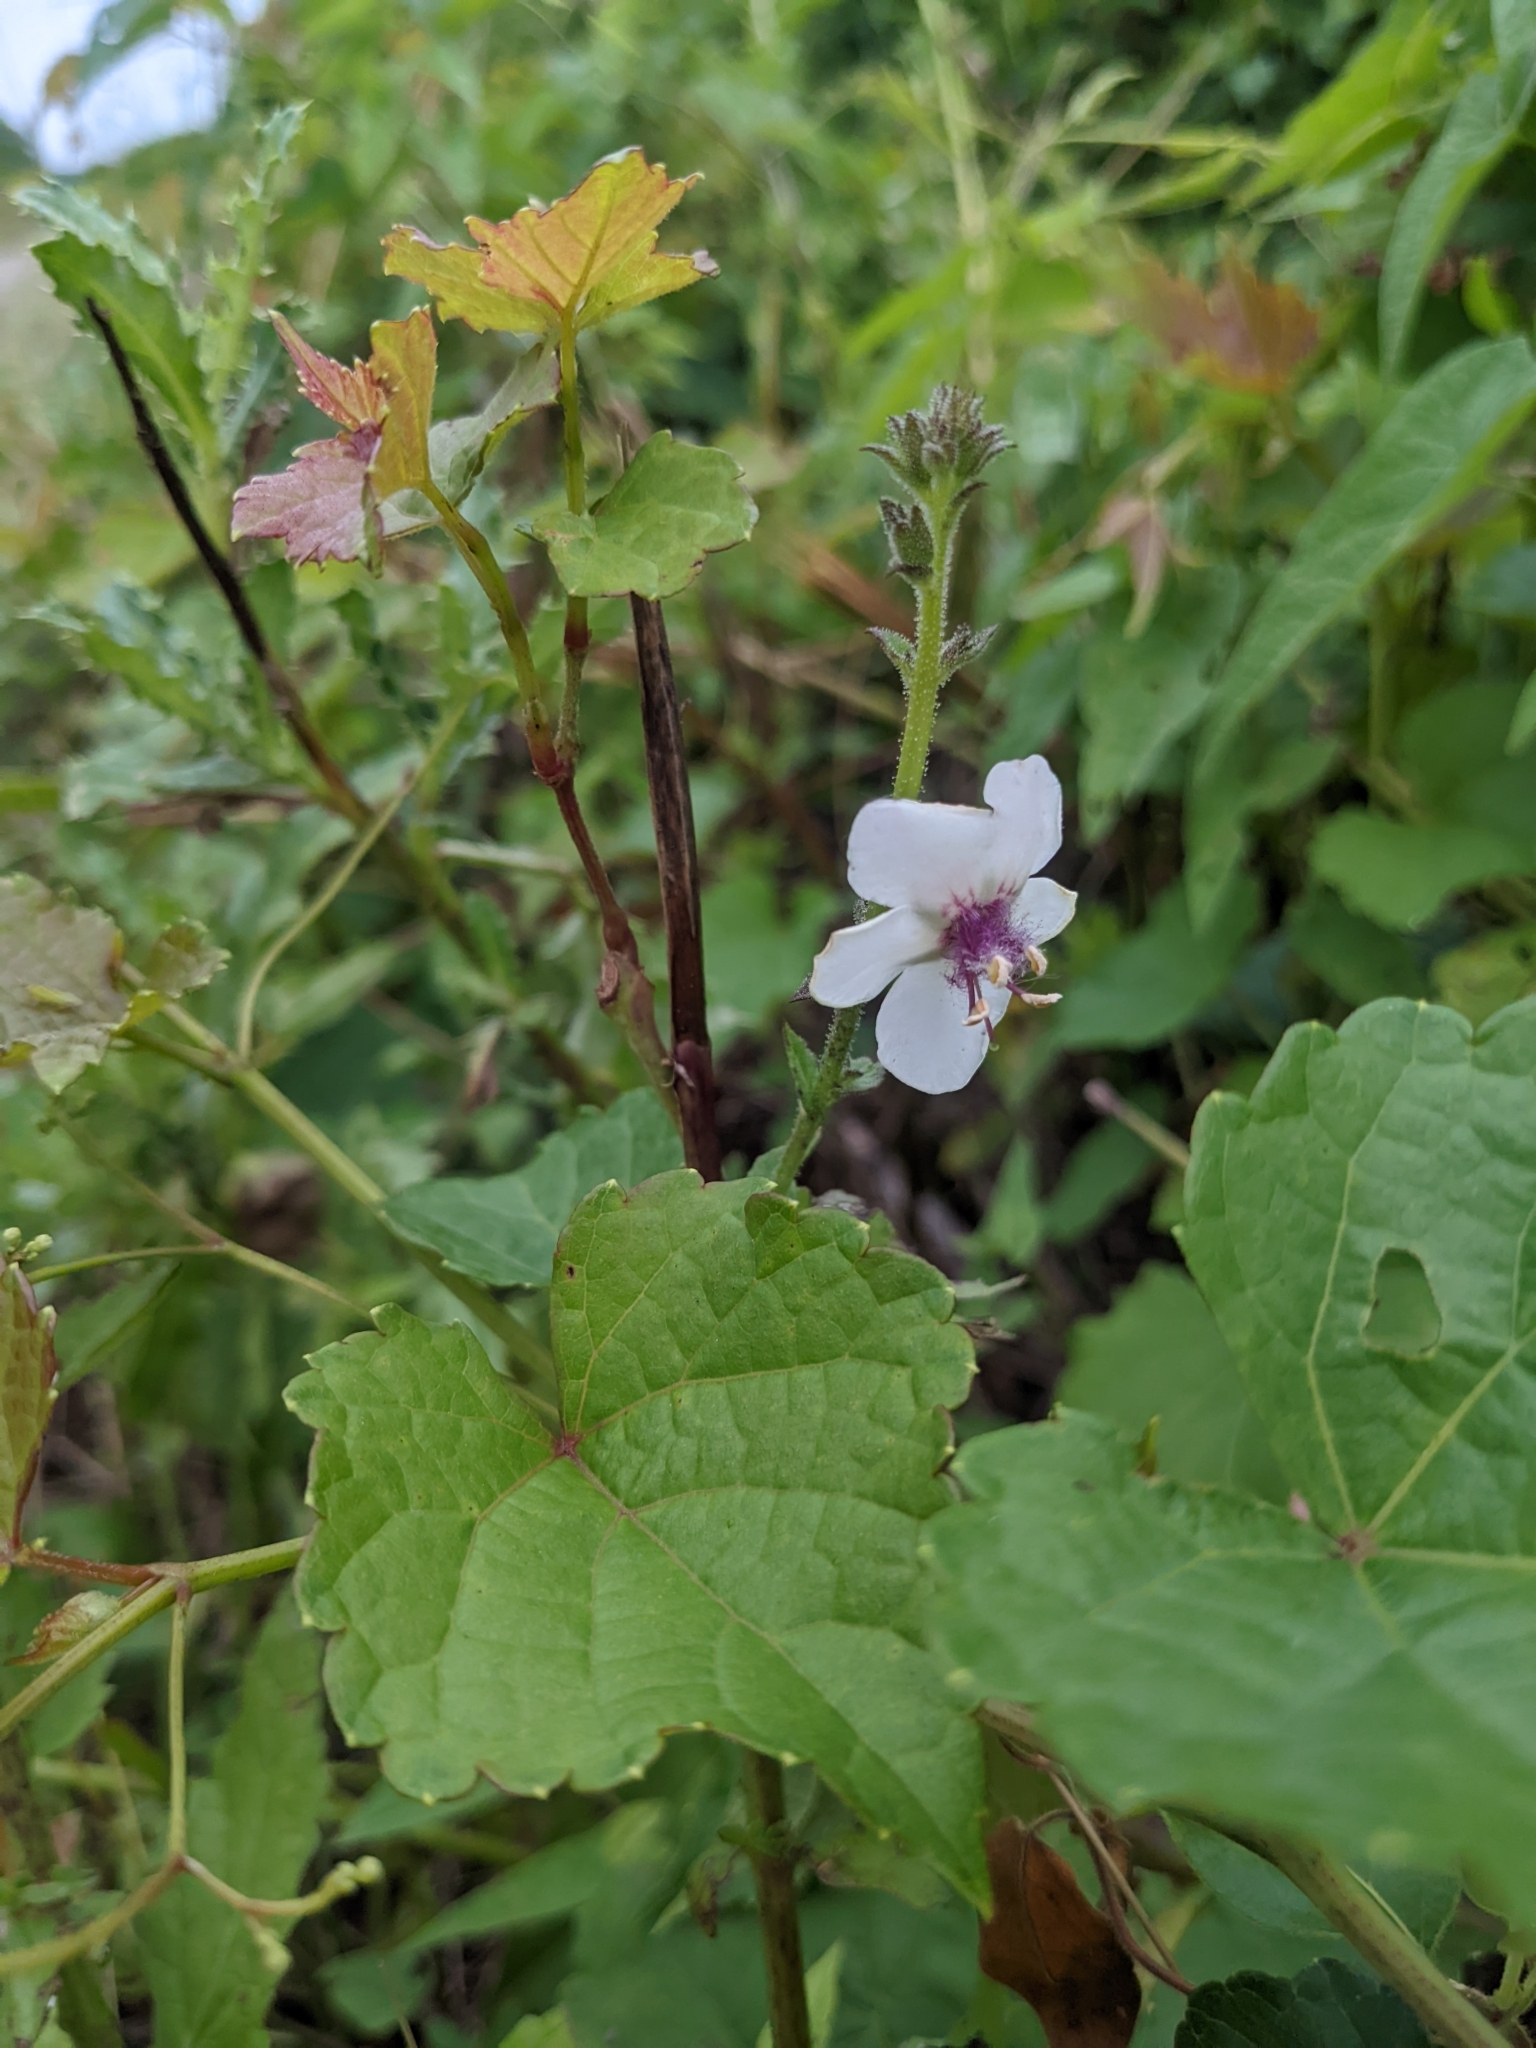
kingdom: Plantae
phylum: Tracheophyta
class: Magnoliopsida
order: Lamiales
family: Scrophulariaceae
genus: Verbascum
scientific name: Verbascum blattaria
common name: Moth mullein
